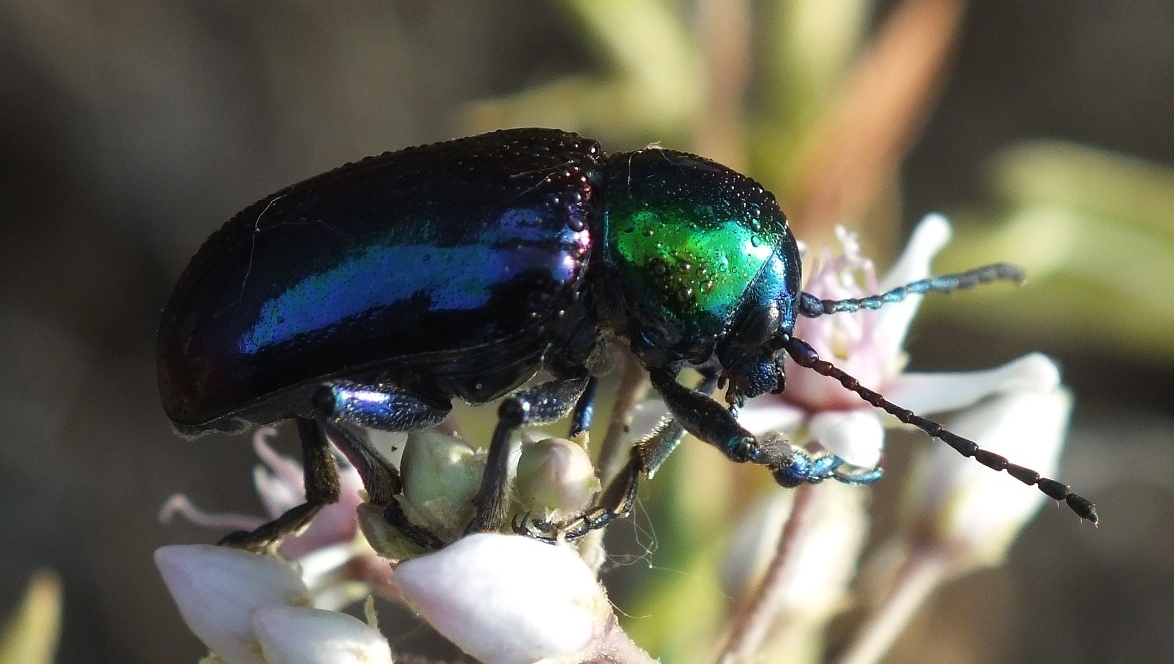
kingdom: Animalia
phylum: Arthropoda
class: Insecta
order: Coleoptera
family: Chrysomelidae
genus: Chrysochares
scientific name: Chrysochares
